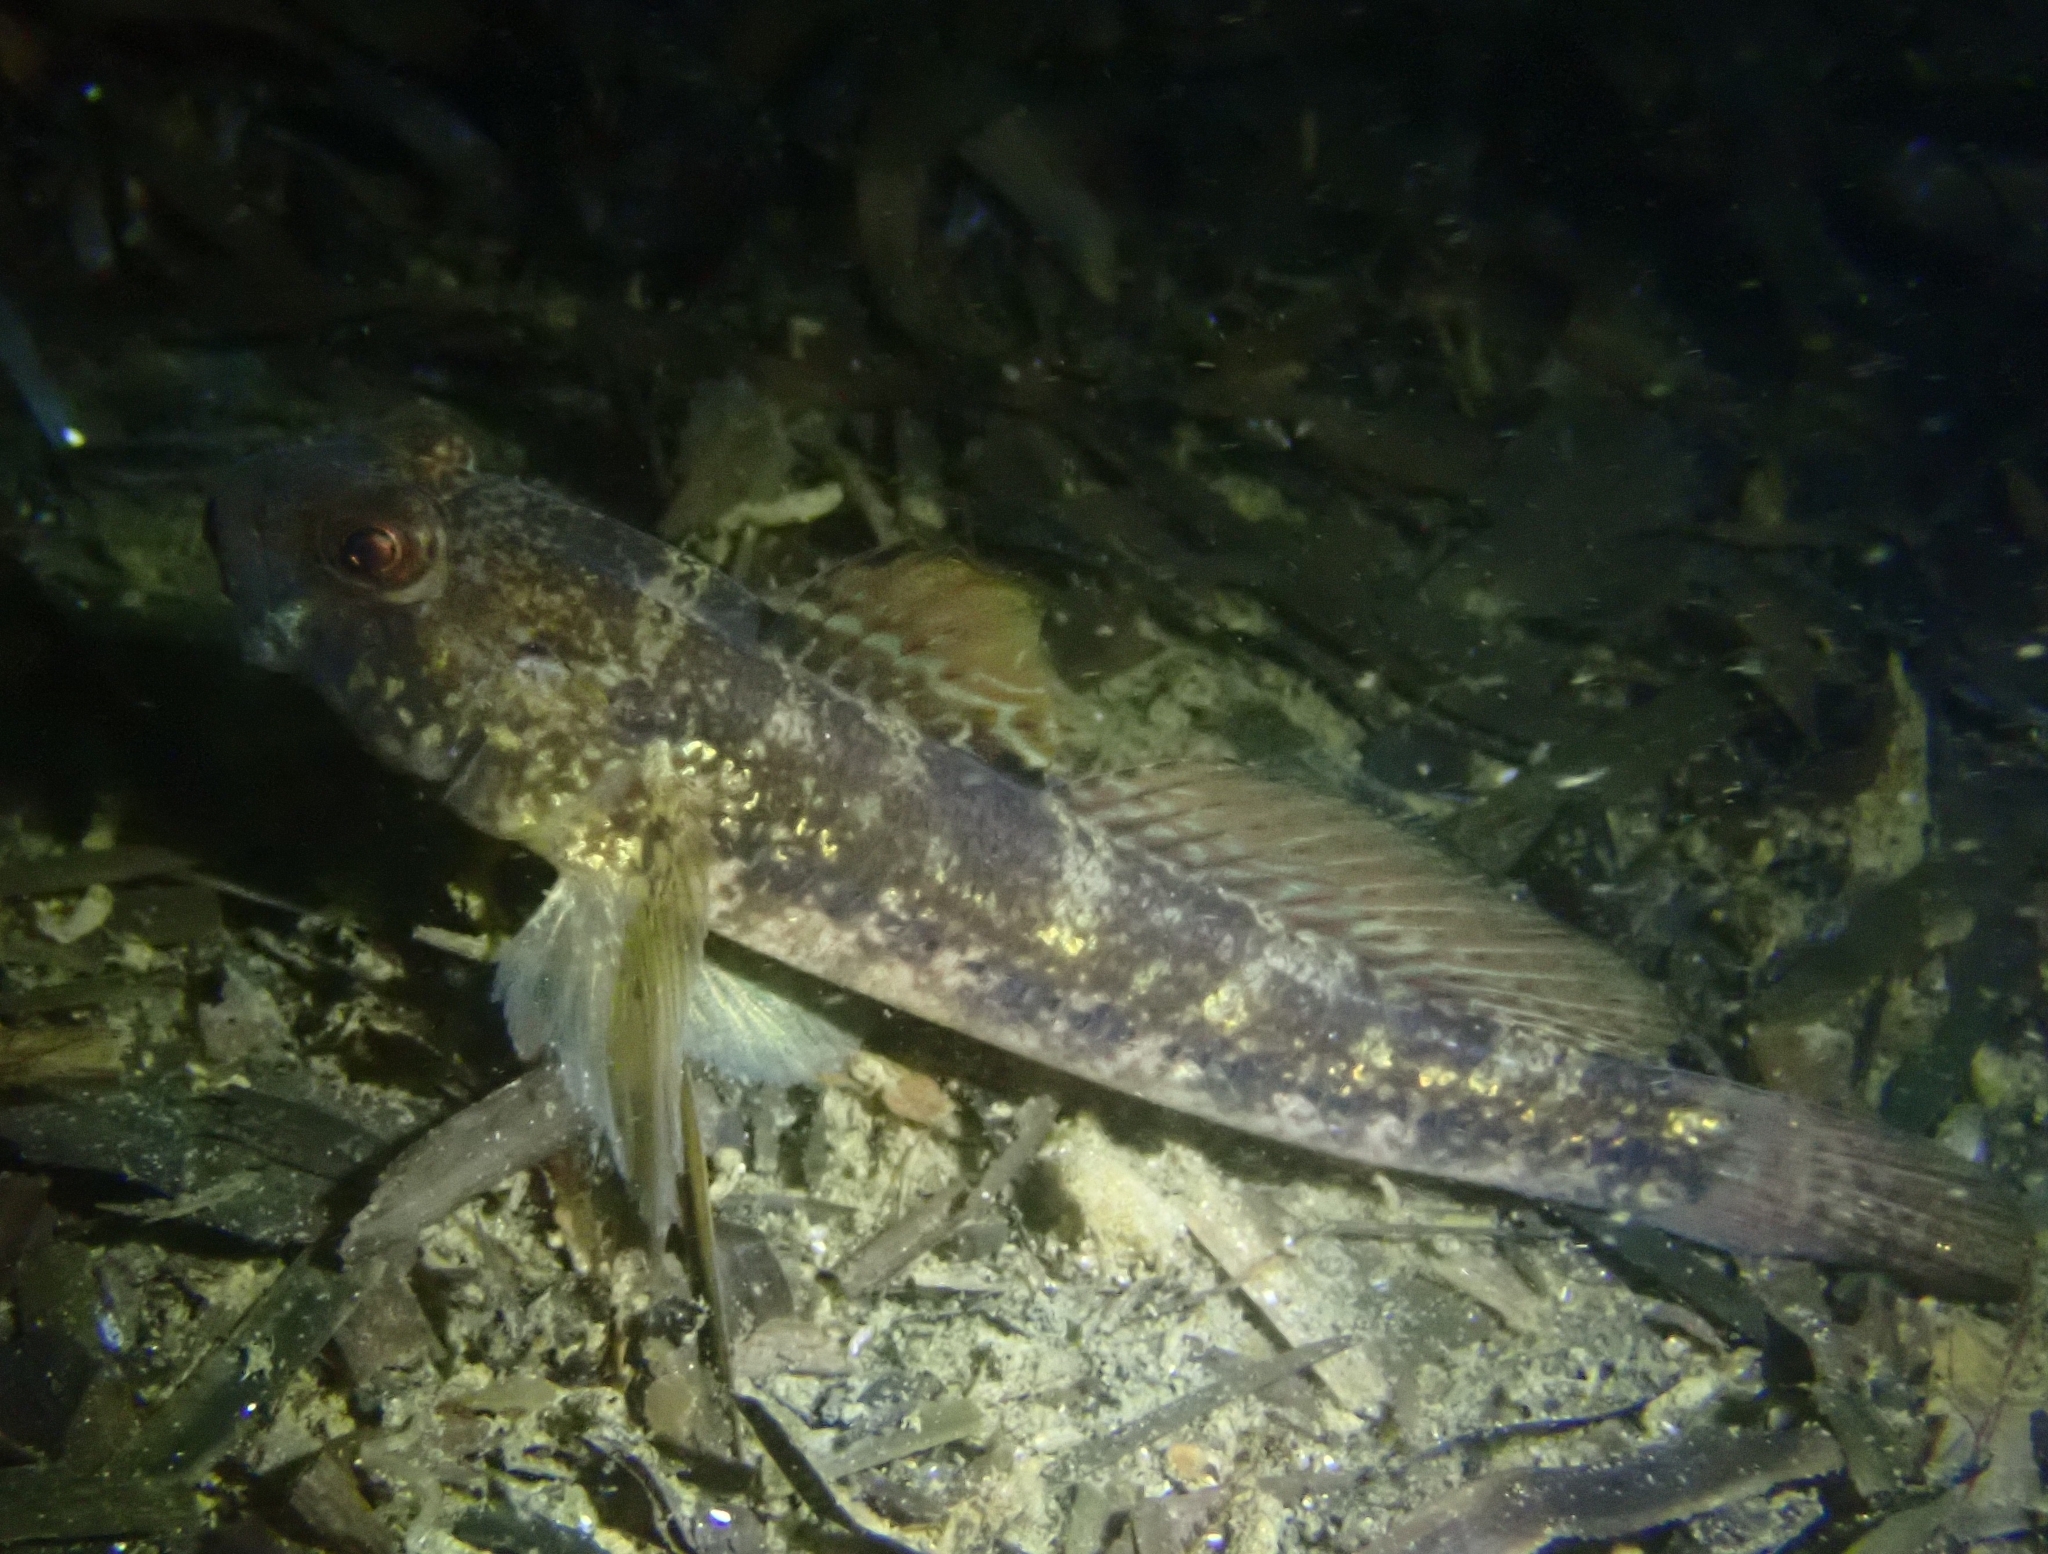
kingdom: Animalia
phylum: Chordata
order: Perciformes
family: Gobiidae
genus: Gobius
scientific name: Gobius niger
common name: Black goby
